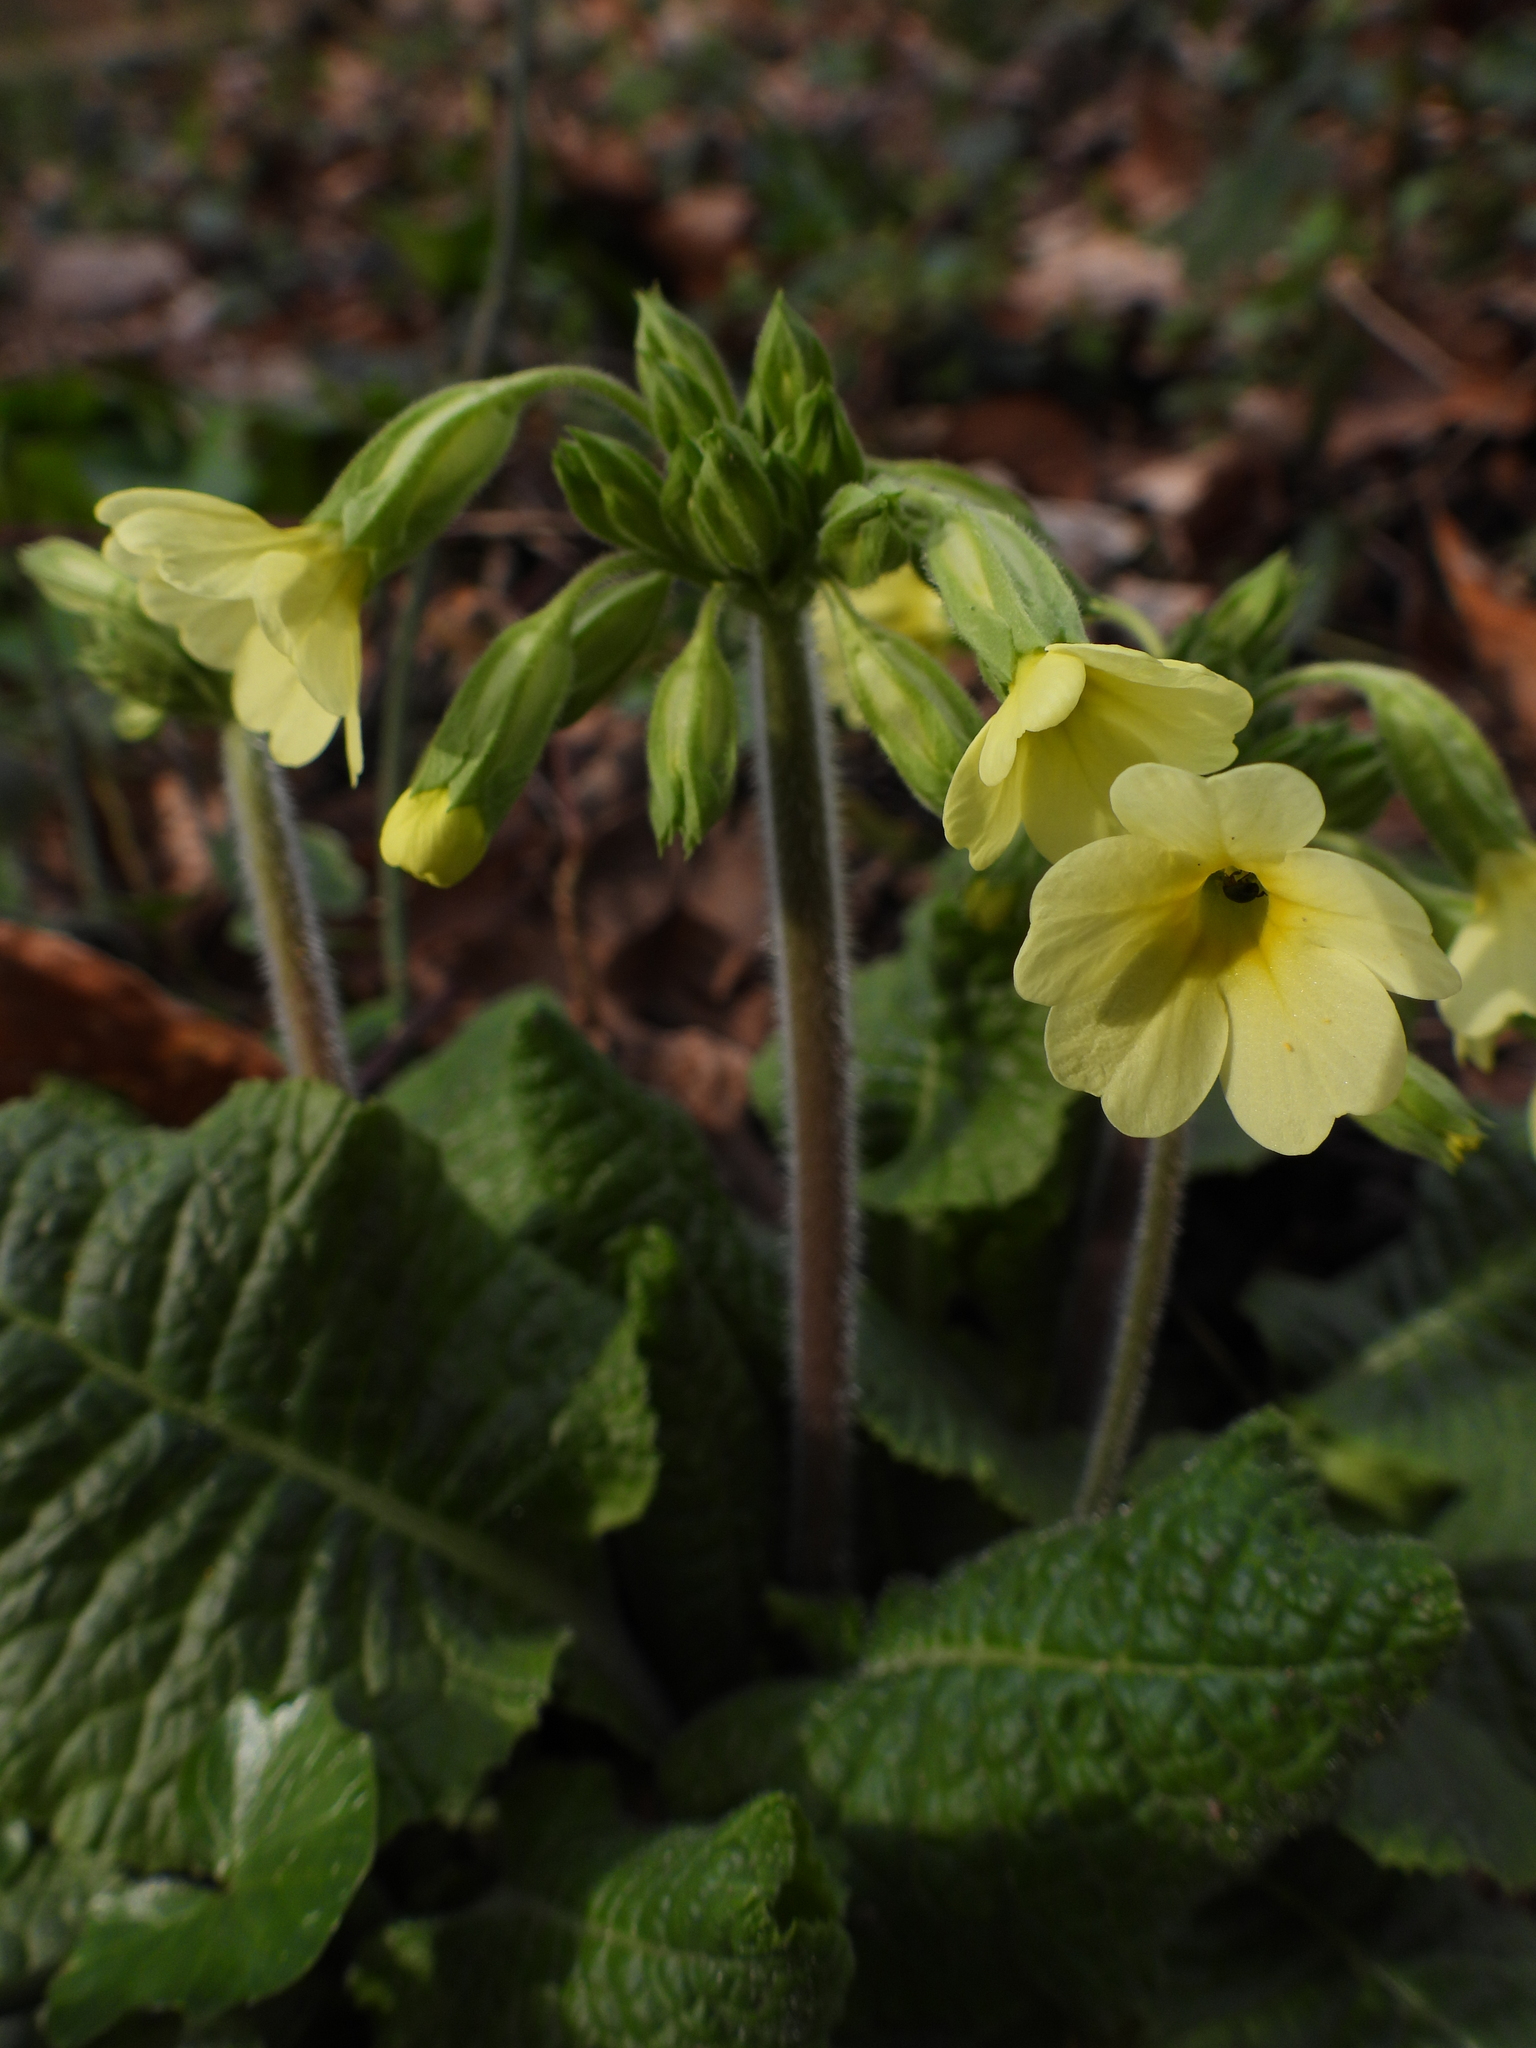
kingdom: Plantae
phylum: Tracheophyta
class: Magnoliopsida
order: Ericales
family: Primulaceae
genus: Primula
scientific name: Primula elatior
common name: Oxlip
